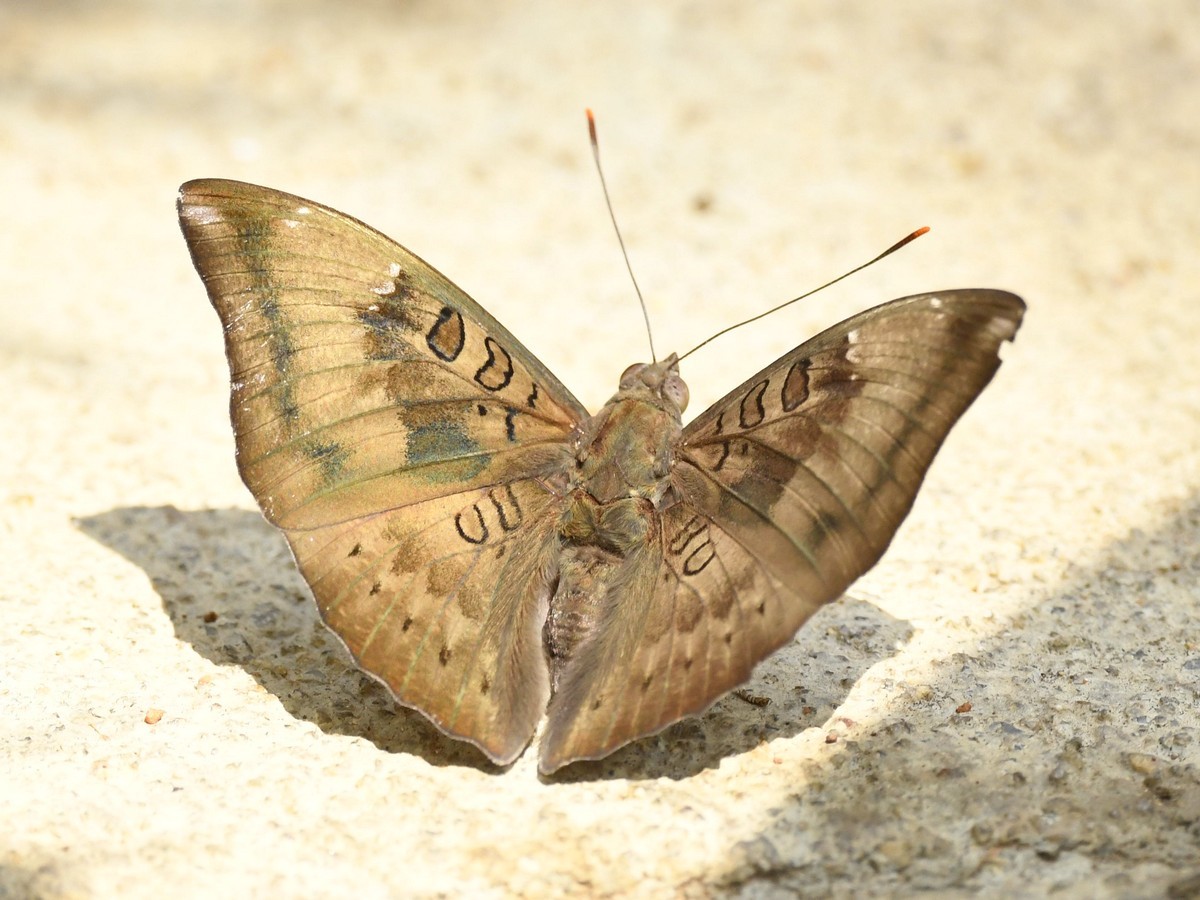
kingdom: Animalia
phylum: Arthropoda
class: Insecta
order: Lepidoptera
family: Nymphalidae
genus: Euthalia
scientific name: Euthalia aconthea
